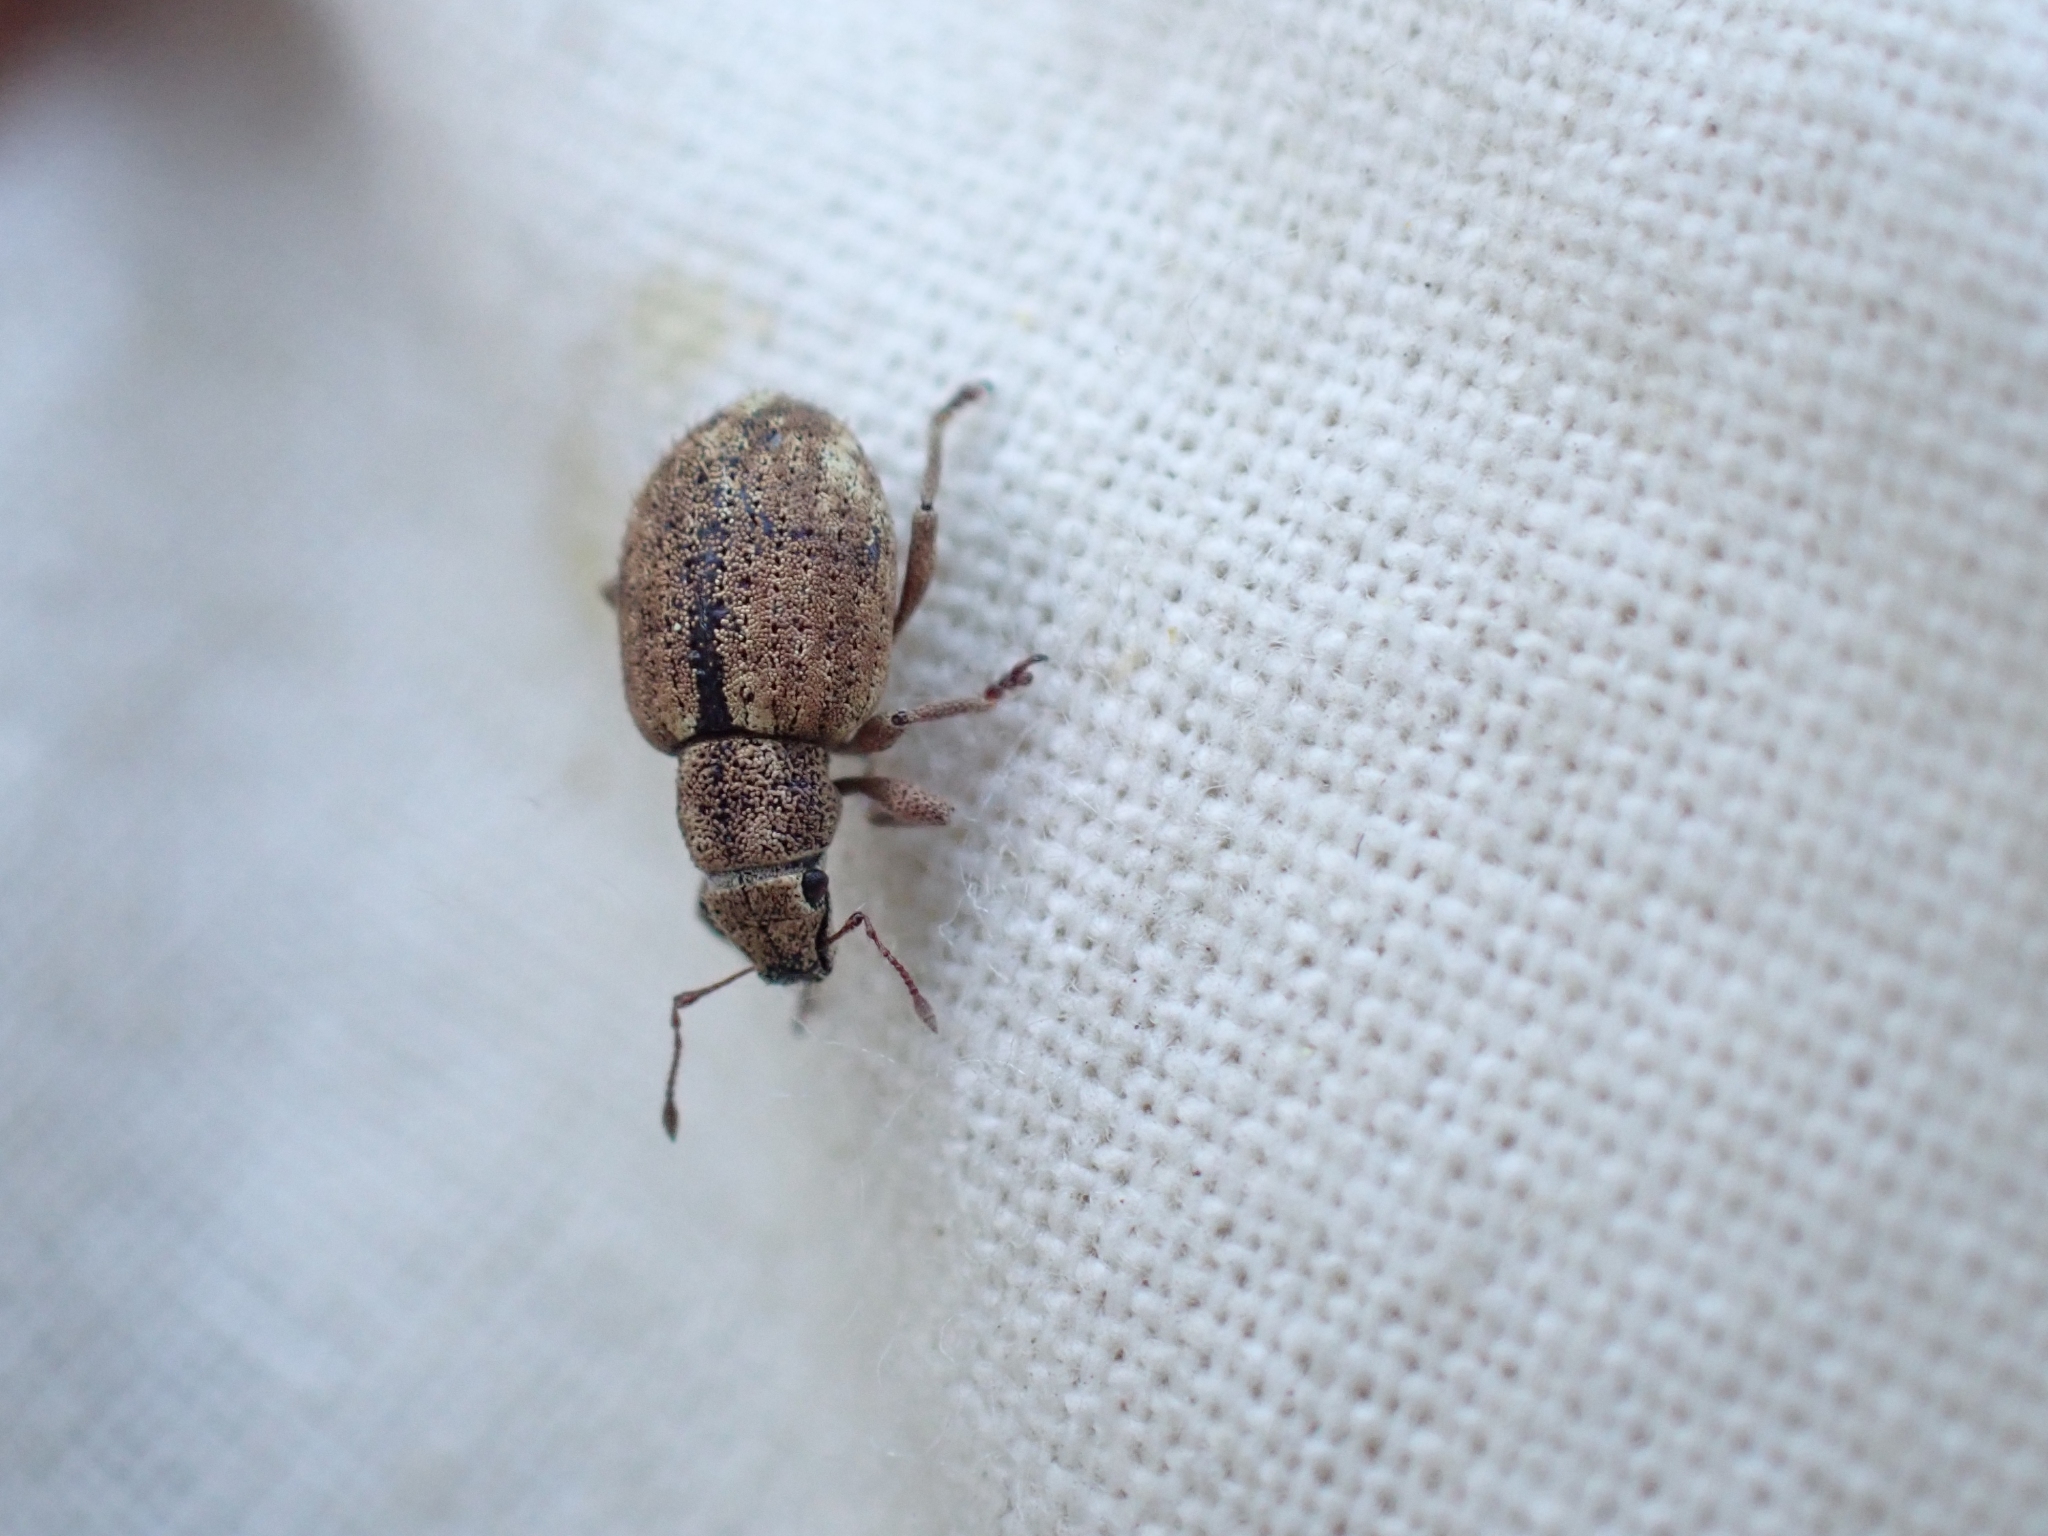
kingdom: Animalia
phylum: Arthropoda
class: Insecta
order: Coleoptera
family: Curculionidae
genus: Strophosoma
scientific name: Strophosoma melanogrammum
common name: Weevil
